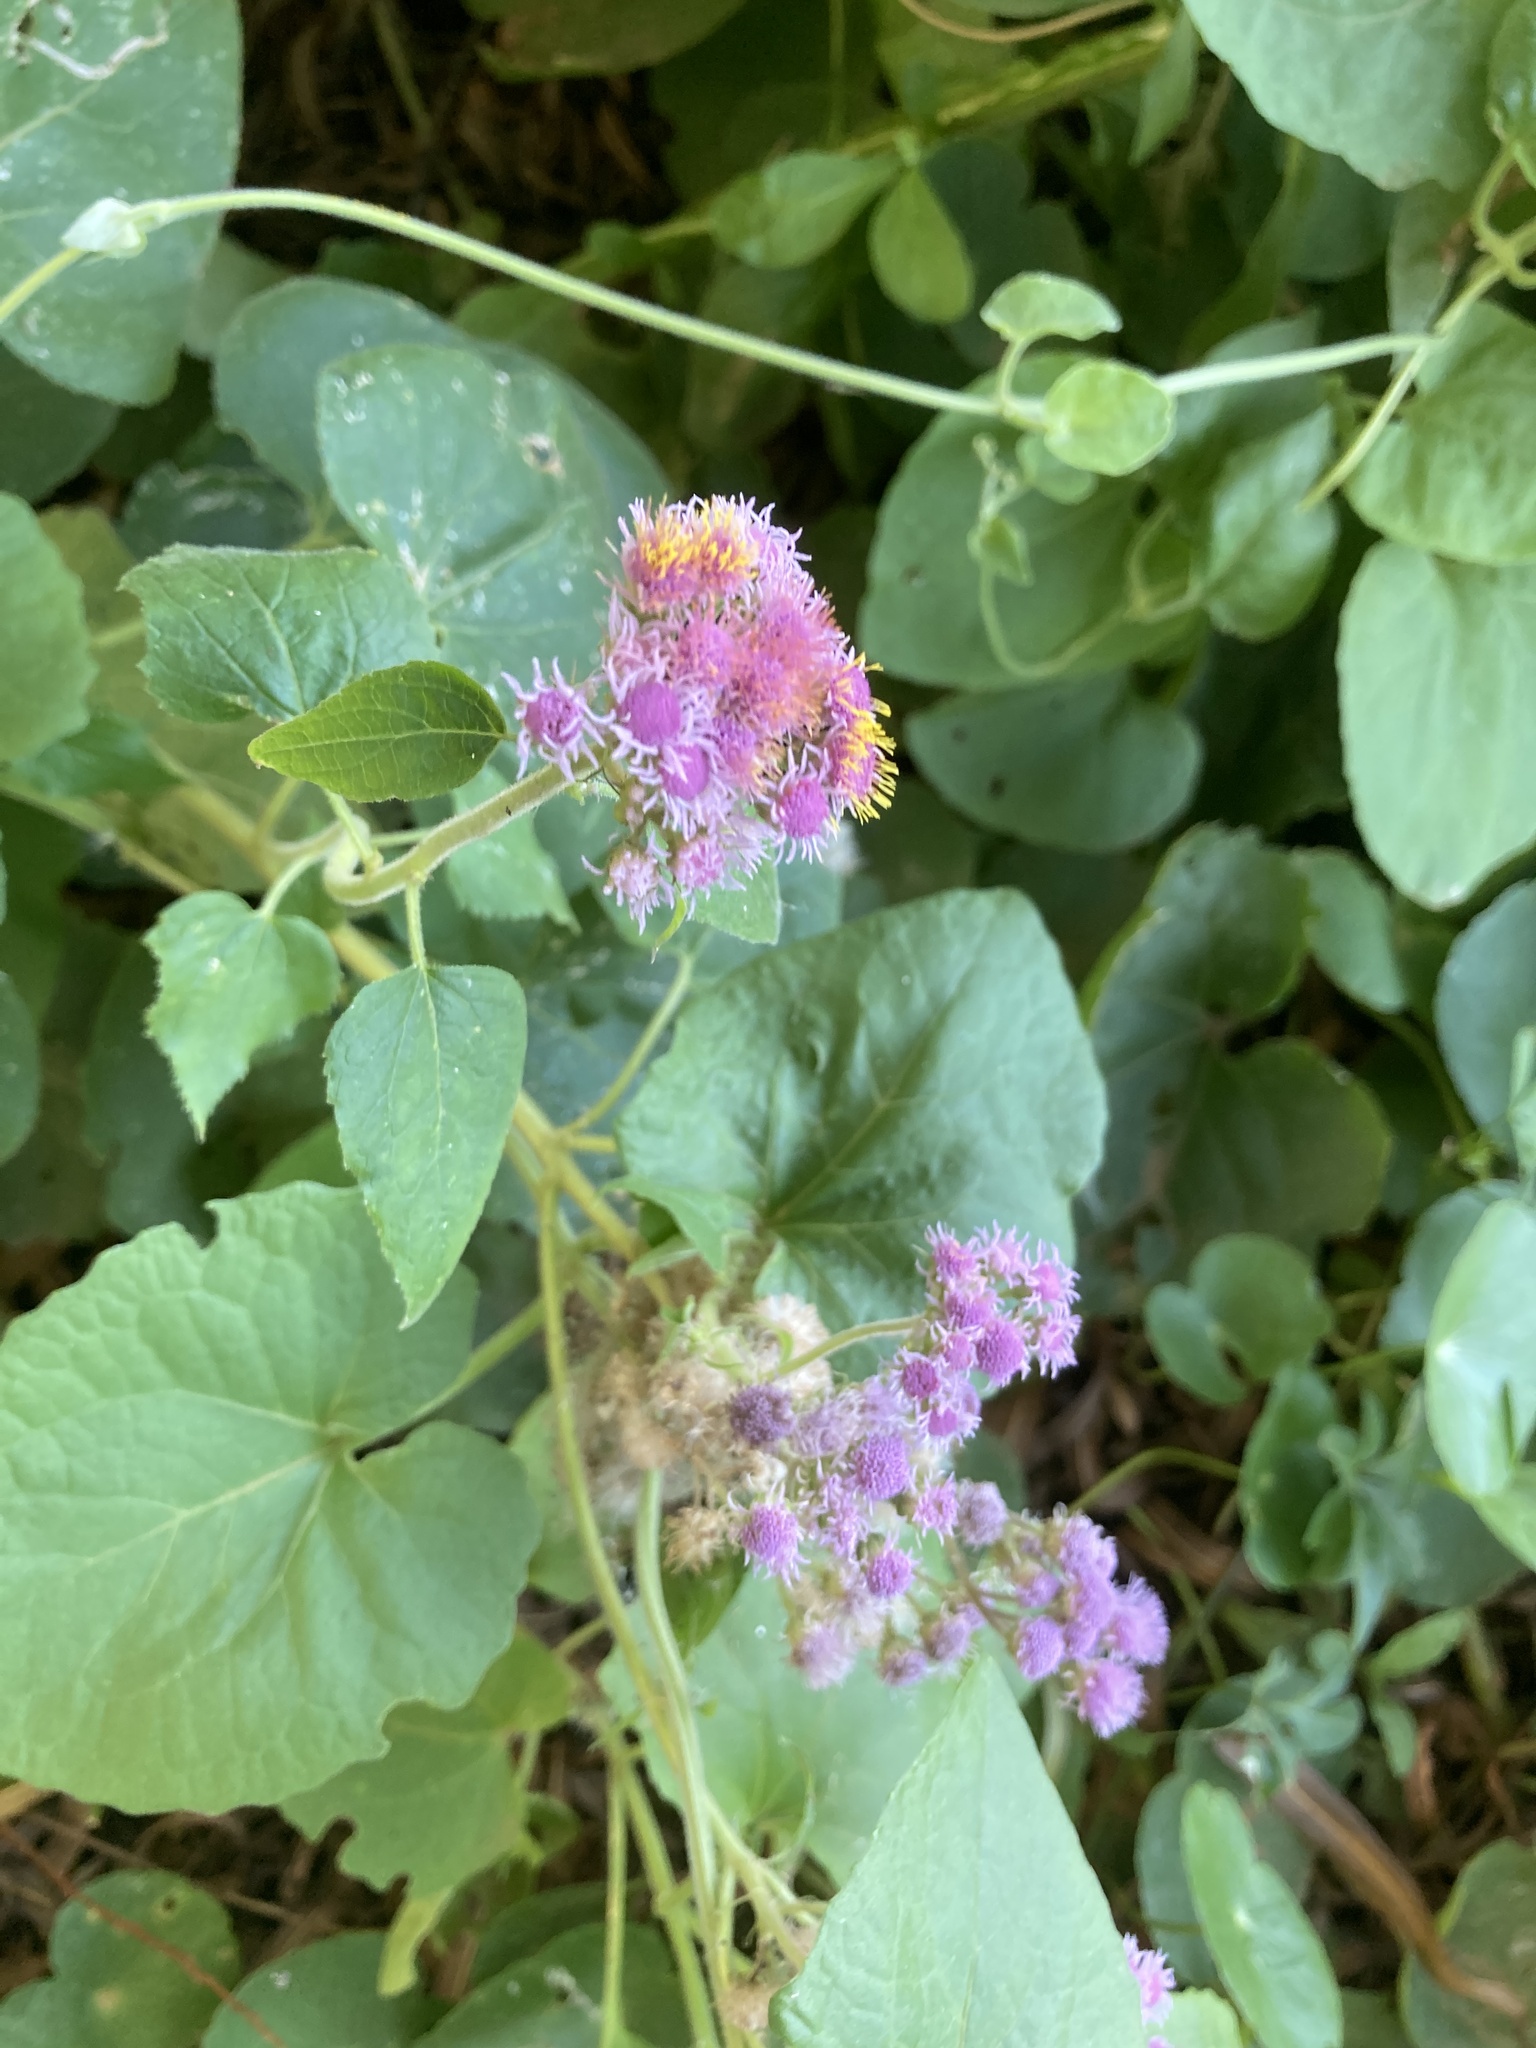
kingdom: Plantae
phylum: Tracheophyta
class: Magnoliopsida
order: Asterales
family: Asteraceae
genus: Urolepis
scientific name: Urolepis hecatantha
